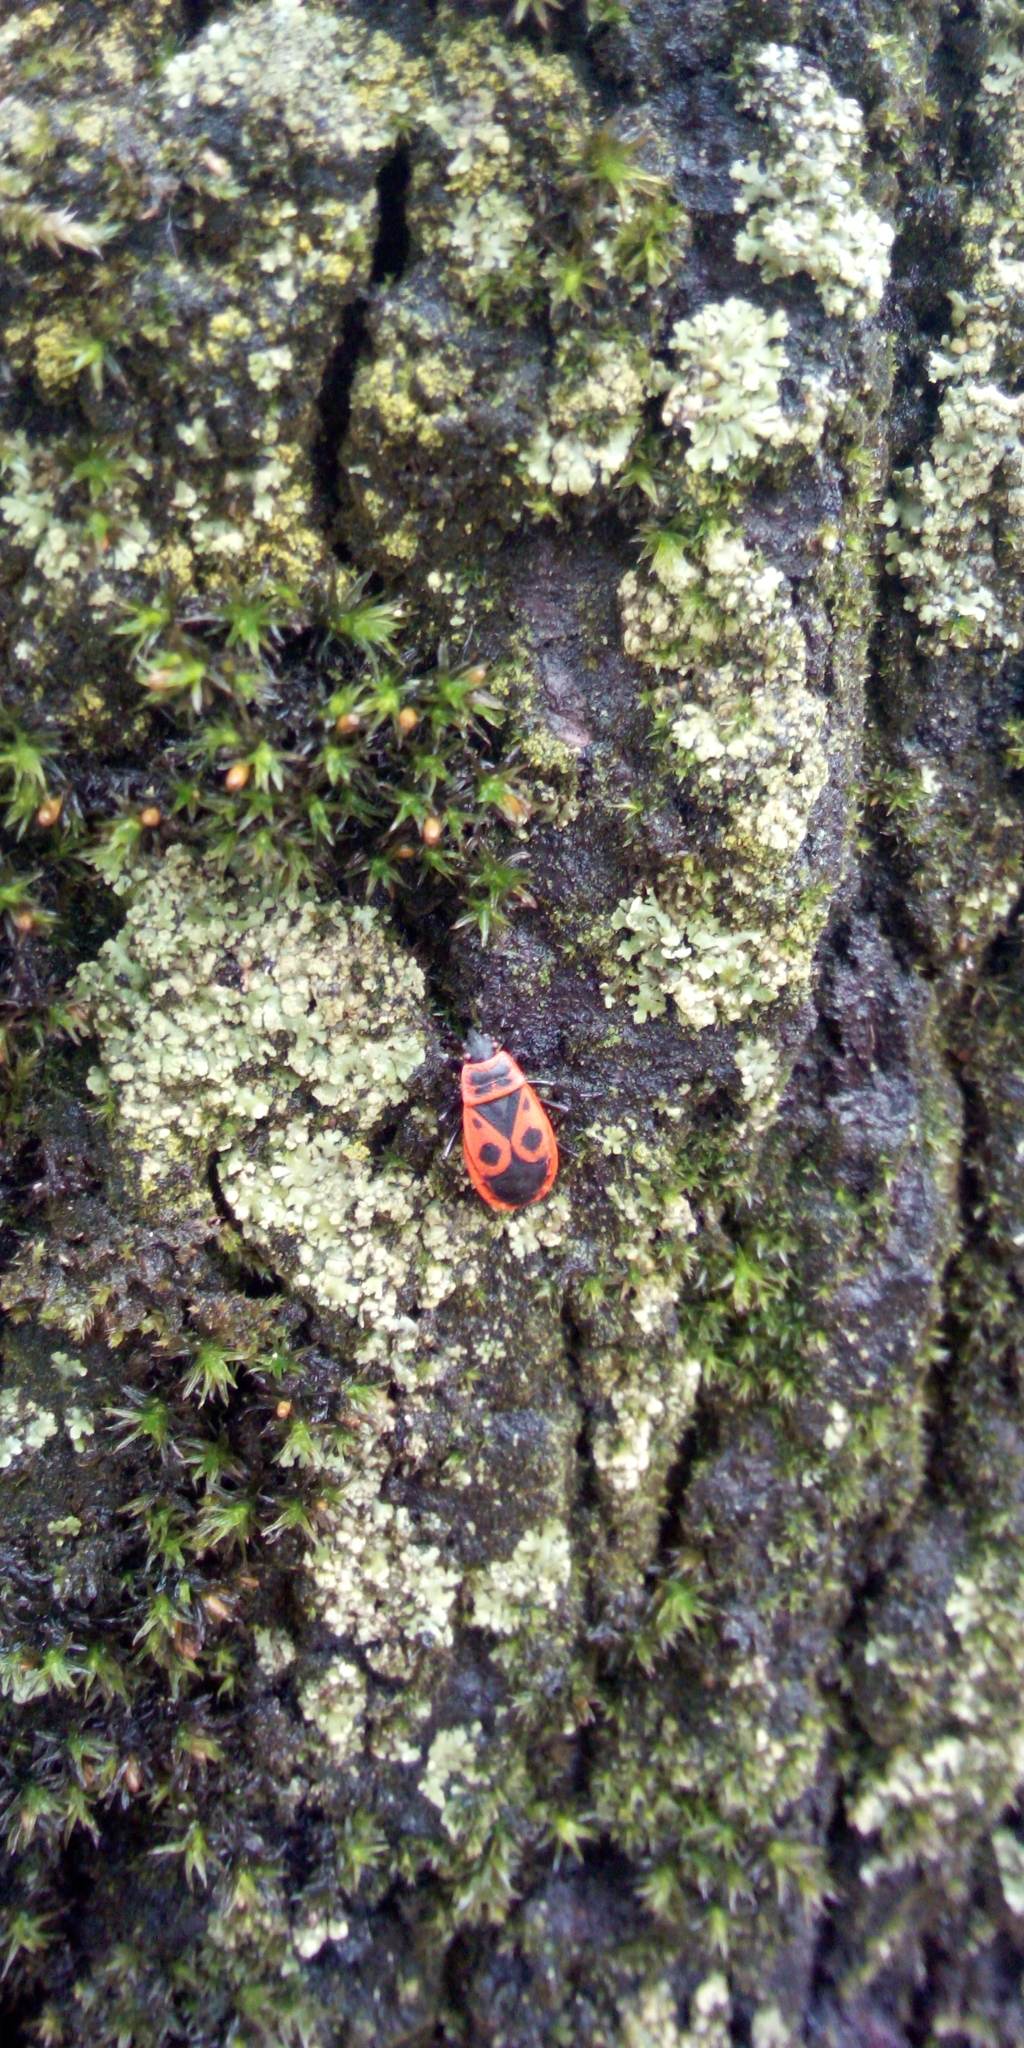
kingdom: Animalia
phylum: Arthropoda
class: Insecta
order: Hemiptera
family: Pyrrhocoridae
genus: Pyrrhocoris
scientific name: Pyrrhocoris apterus
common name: Firebug
